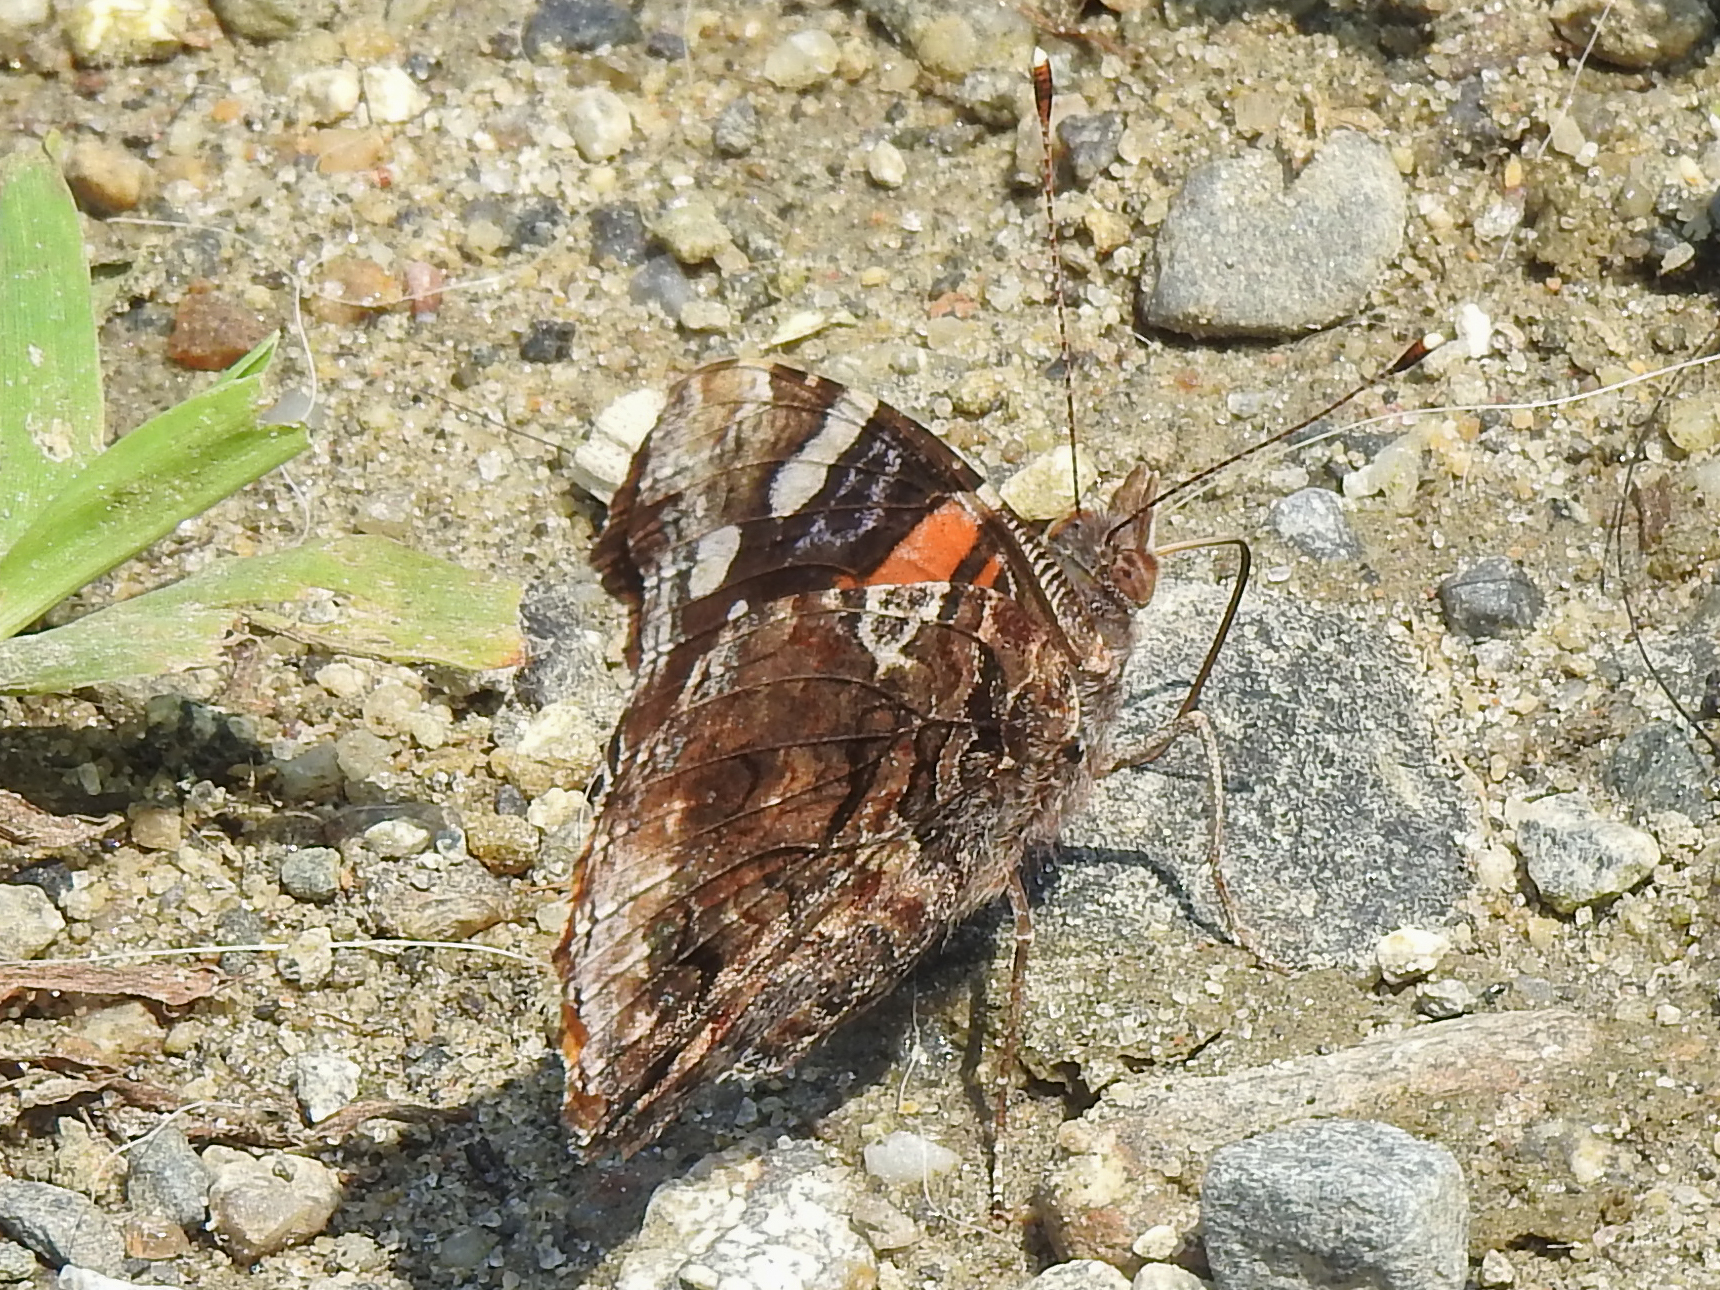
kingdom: Animalia
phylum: Arthropoda
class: Insecta
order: Lepidoptera
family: Nymphalidae
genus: Vanessa
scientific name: Vanessa atalanta
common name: Red admiral
